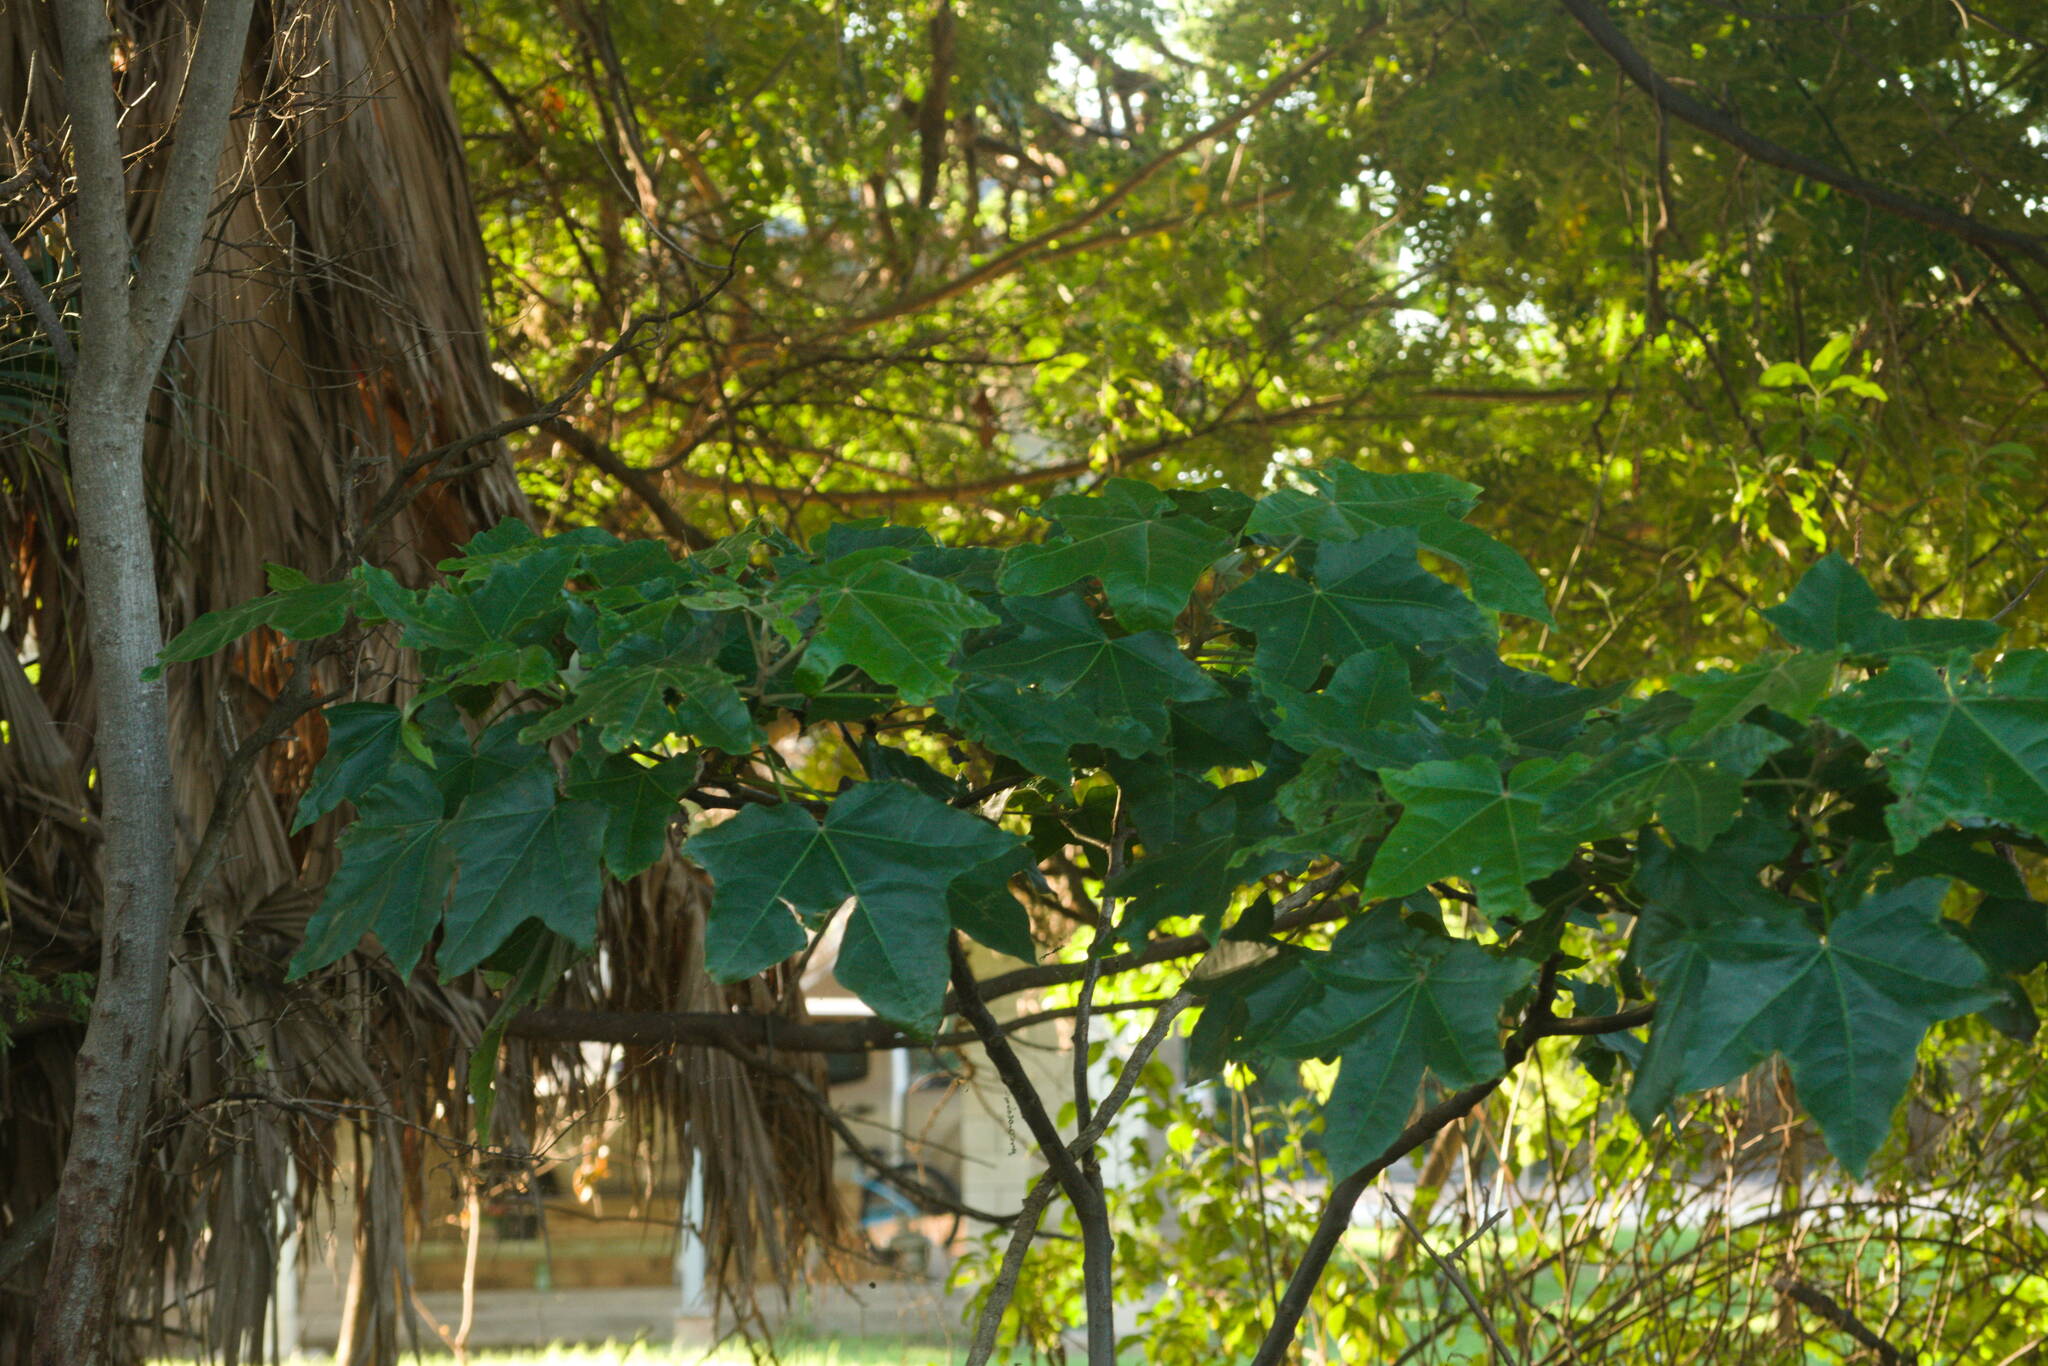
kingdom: Plantae
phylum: Tracheophyta
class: Magnoliopsida
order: Malpighiales
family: Euphorbiaceae
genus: Aleurites
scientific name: Aleurites moluccanus
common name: Candlenut tree
